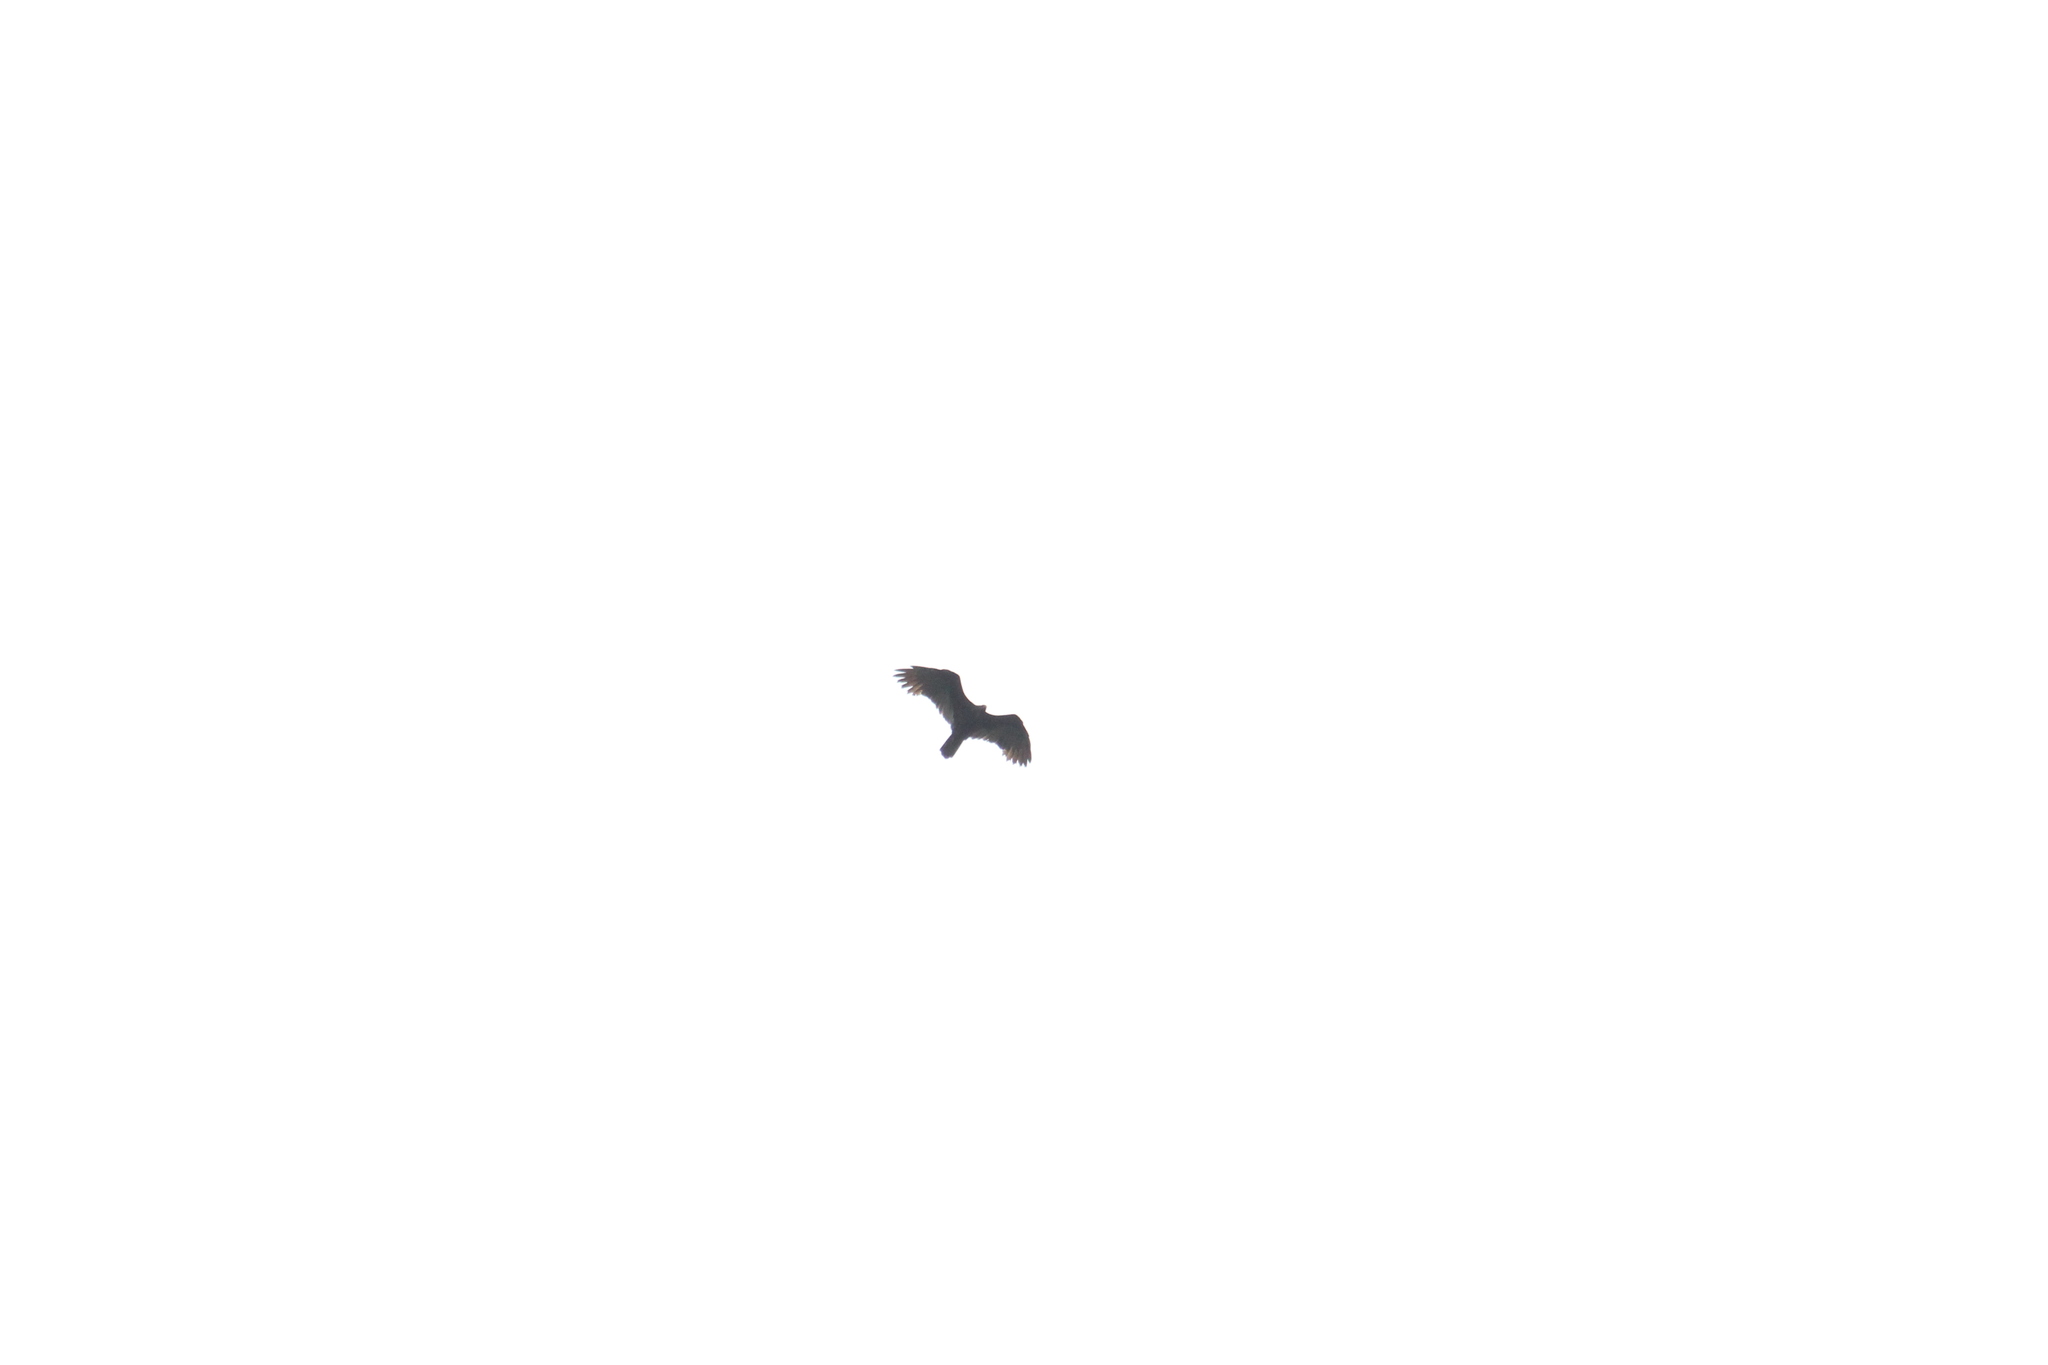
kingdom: Animalia
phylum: Chordata
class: Aves
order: Accipitriformes
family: Cathartidae
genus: Cathartes
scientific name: Cathartes aura
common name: Turkey vulture
